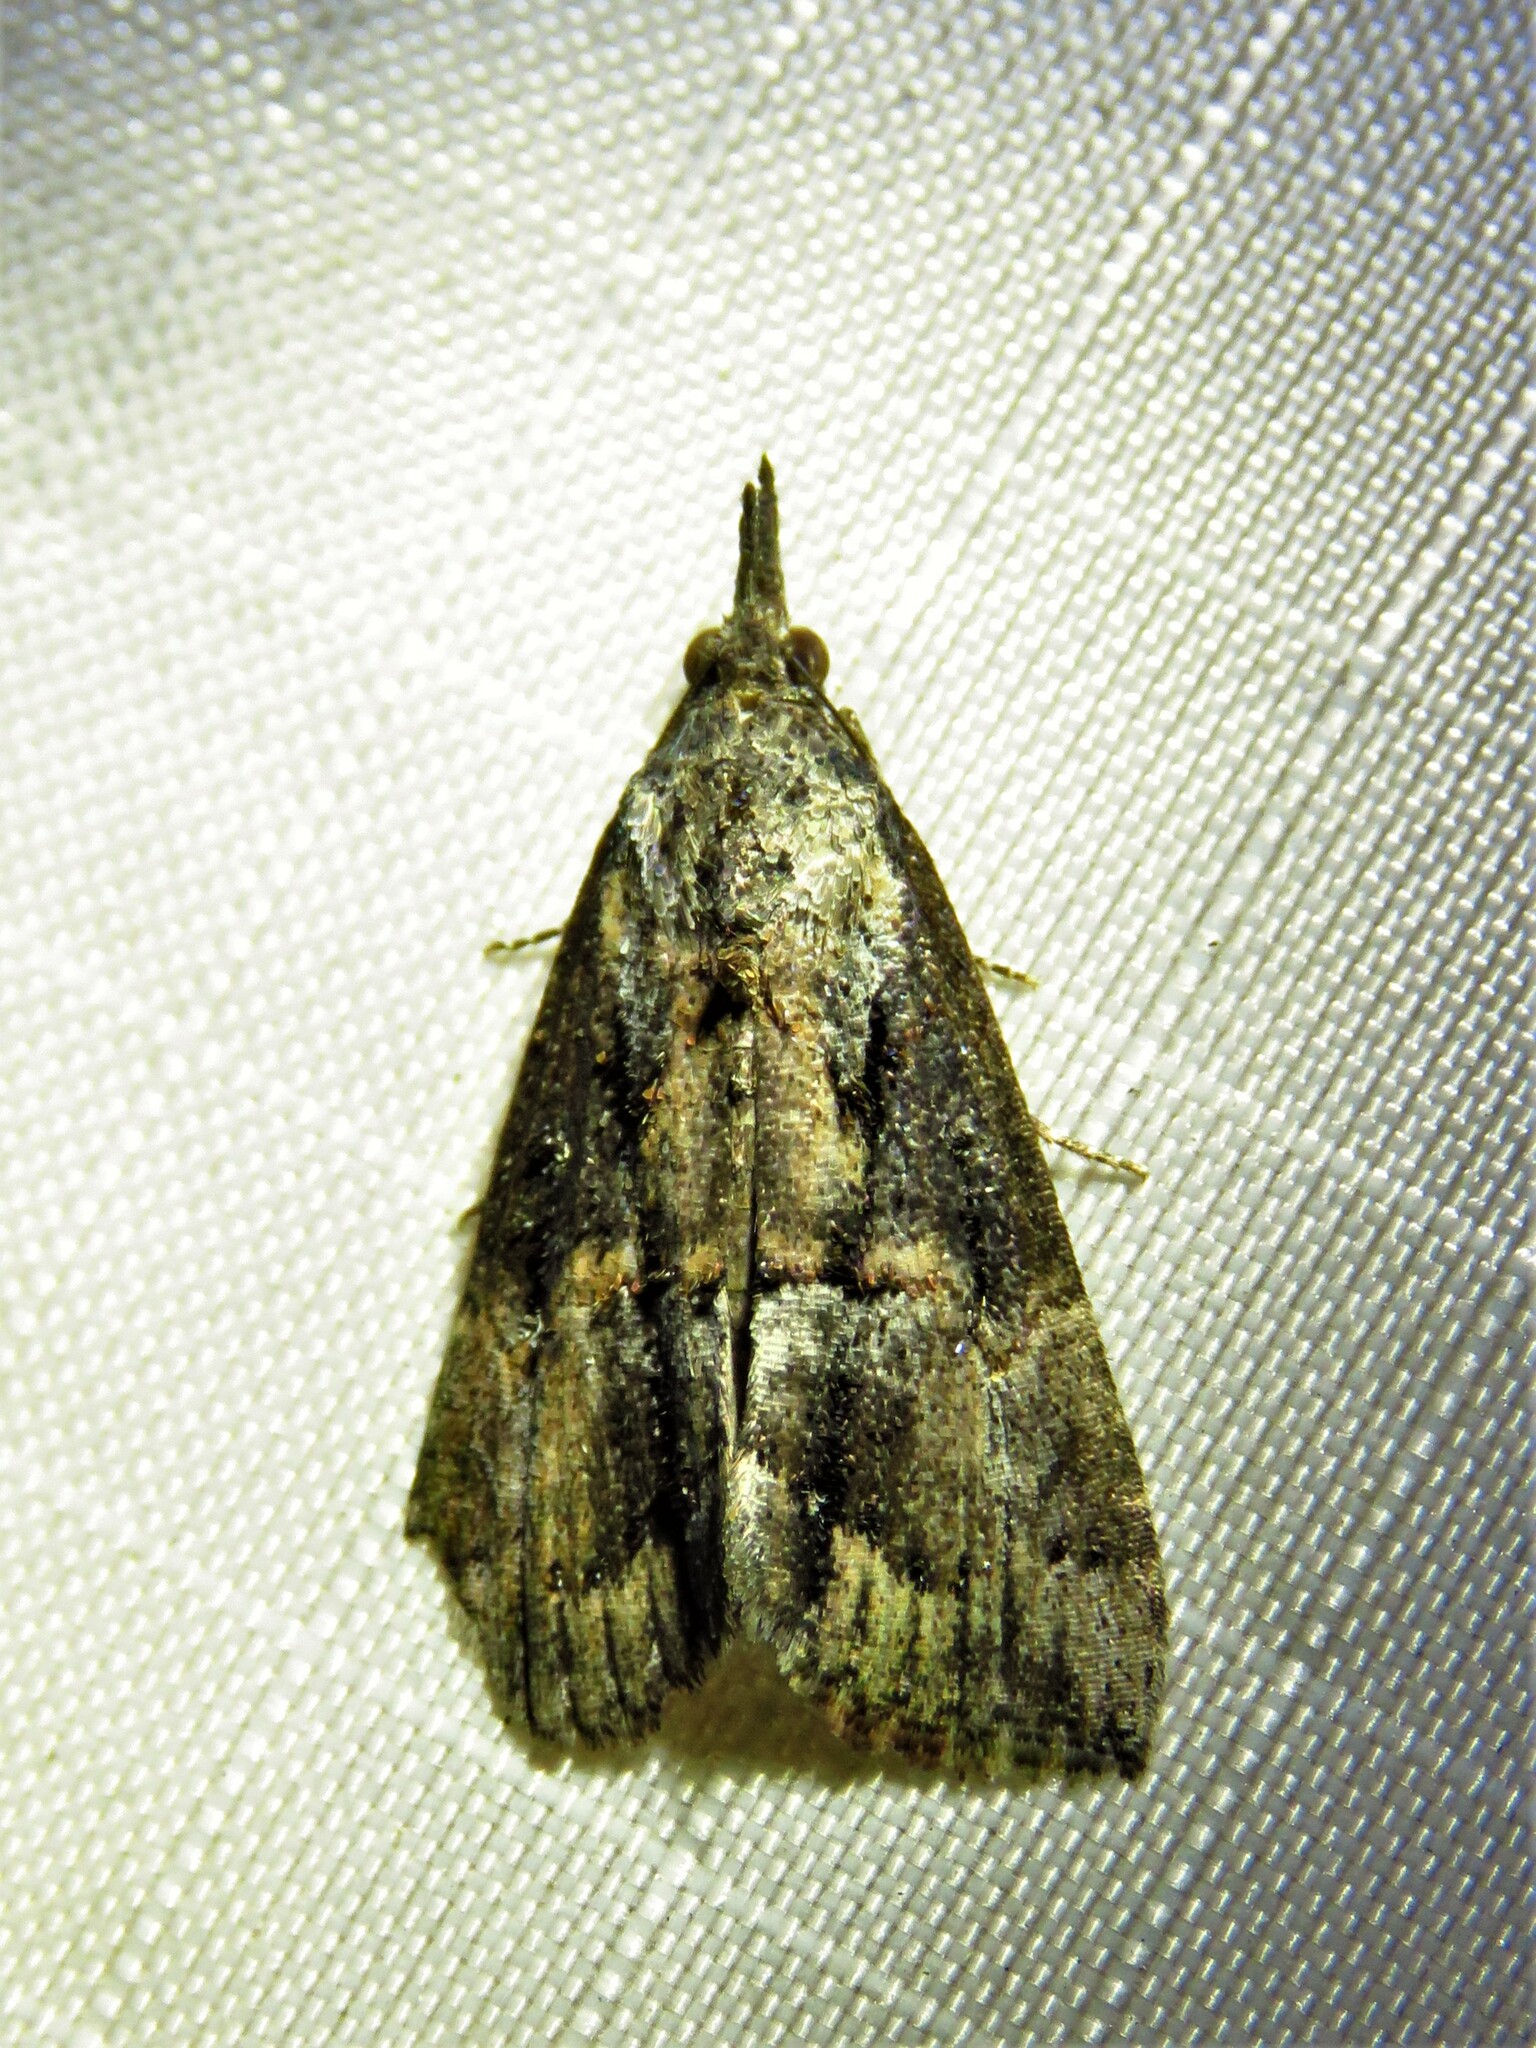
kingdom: Animalia
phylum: Arthropoda
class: Insecta
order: Lepidoptera
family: Erebidae
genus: Hypena
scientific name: Hypena scabra
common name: Green cloverworm
